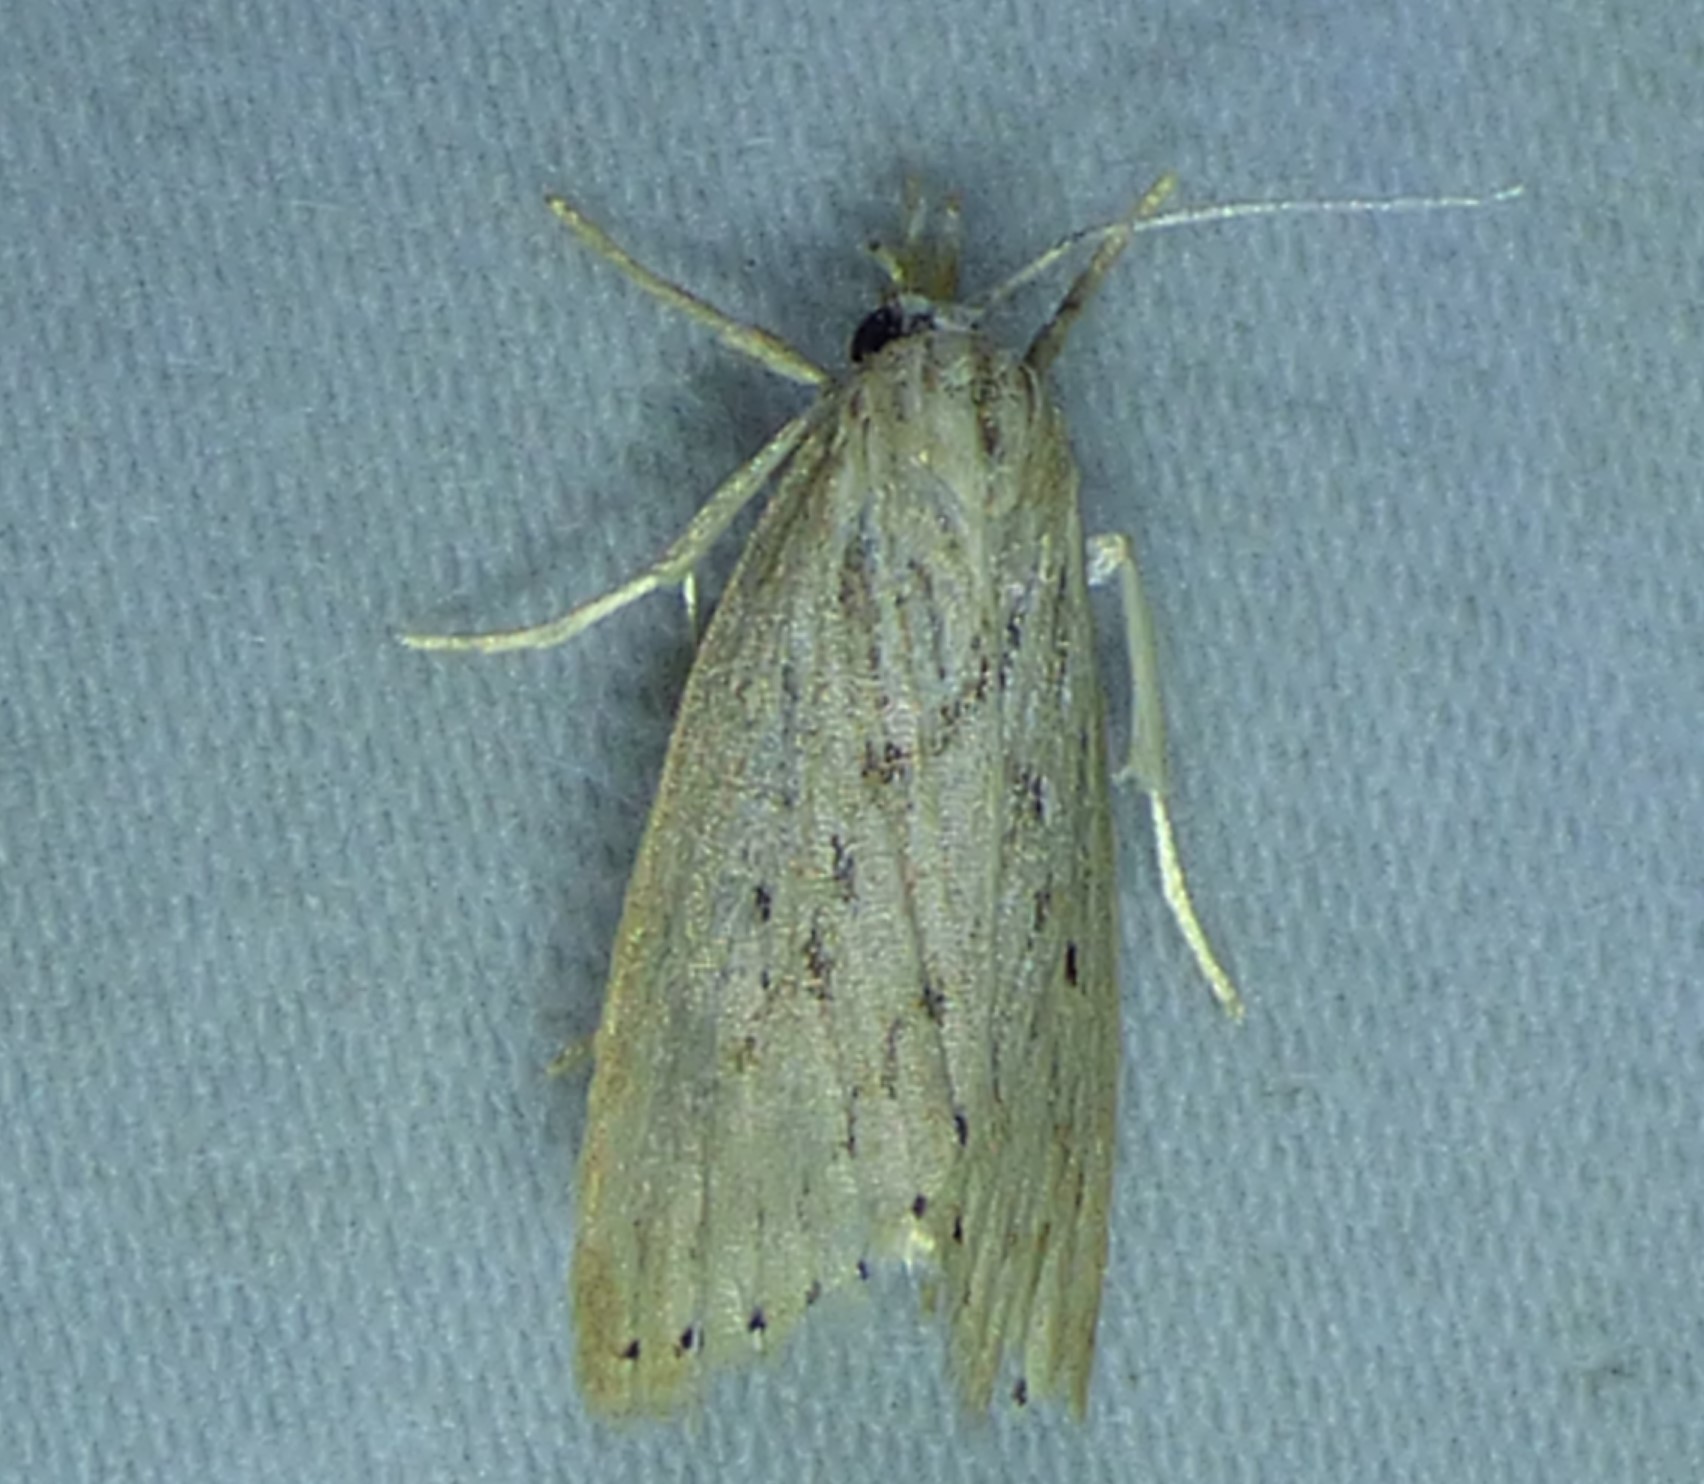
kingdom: Animalia
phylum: Arthropoda
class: Insecta
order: Lepidoptera
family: Crambidae
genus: Diatraea
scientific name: Diatraea lisetta
